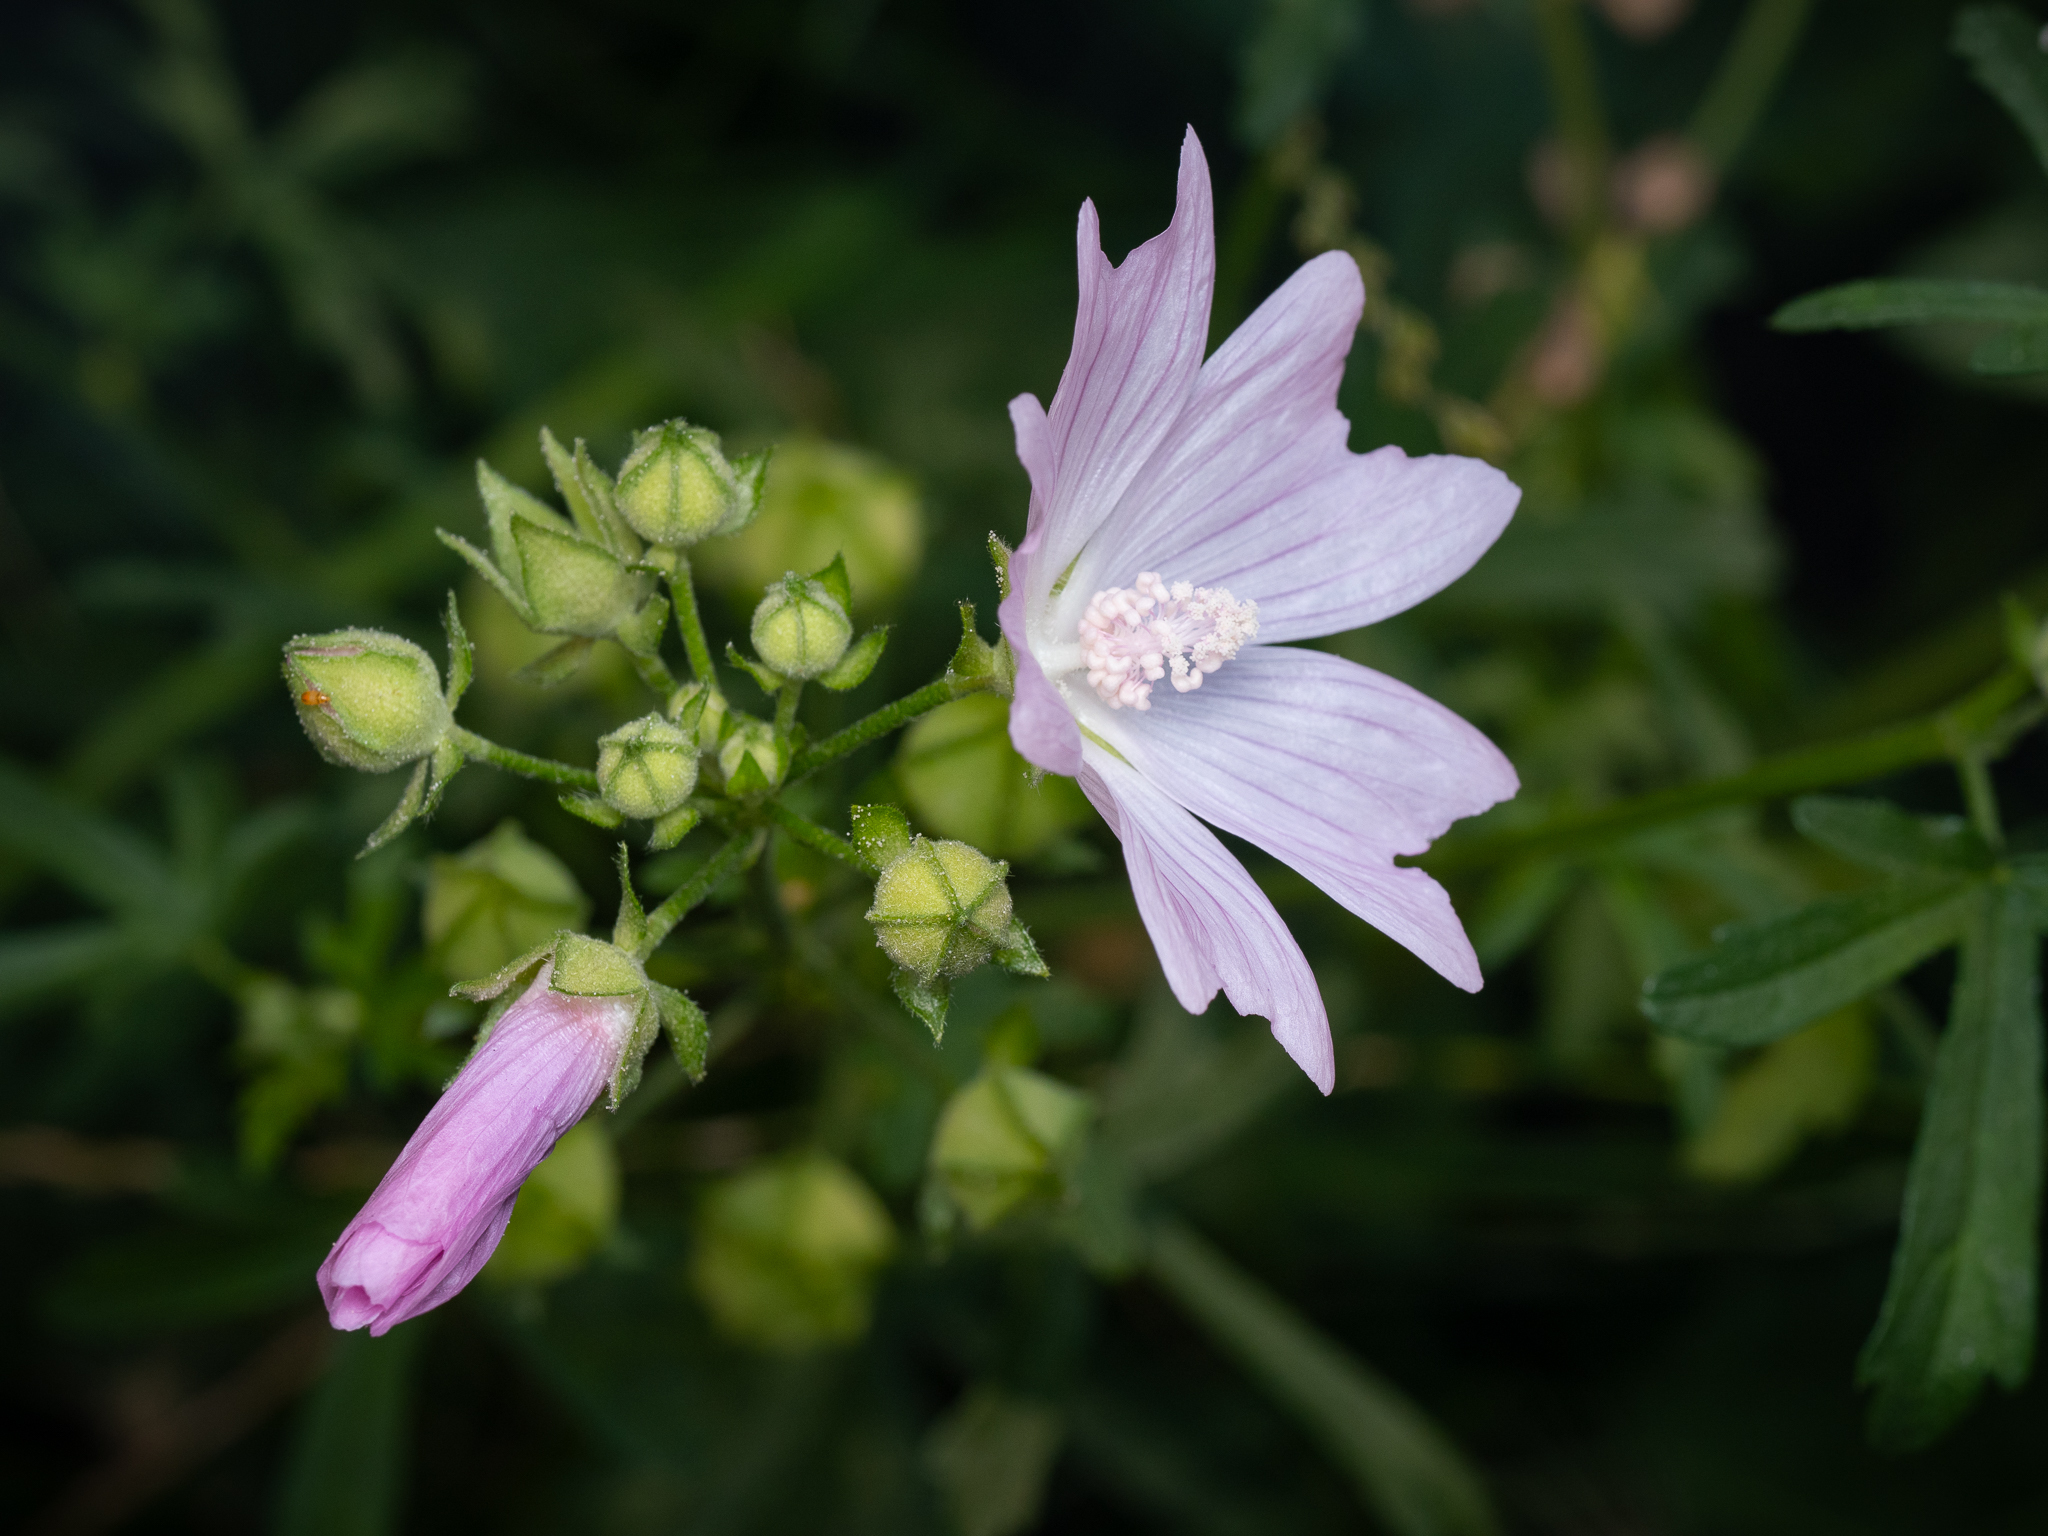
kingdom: Plantae
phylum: Tracheophyta
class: Magnoliopsida
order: Malvales
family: Malvaceae
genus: Malva
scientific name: Malva alcea
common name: Greater musk-mallow
